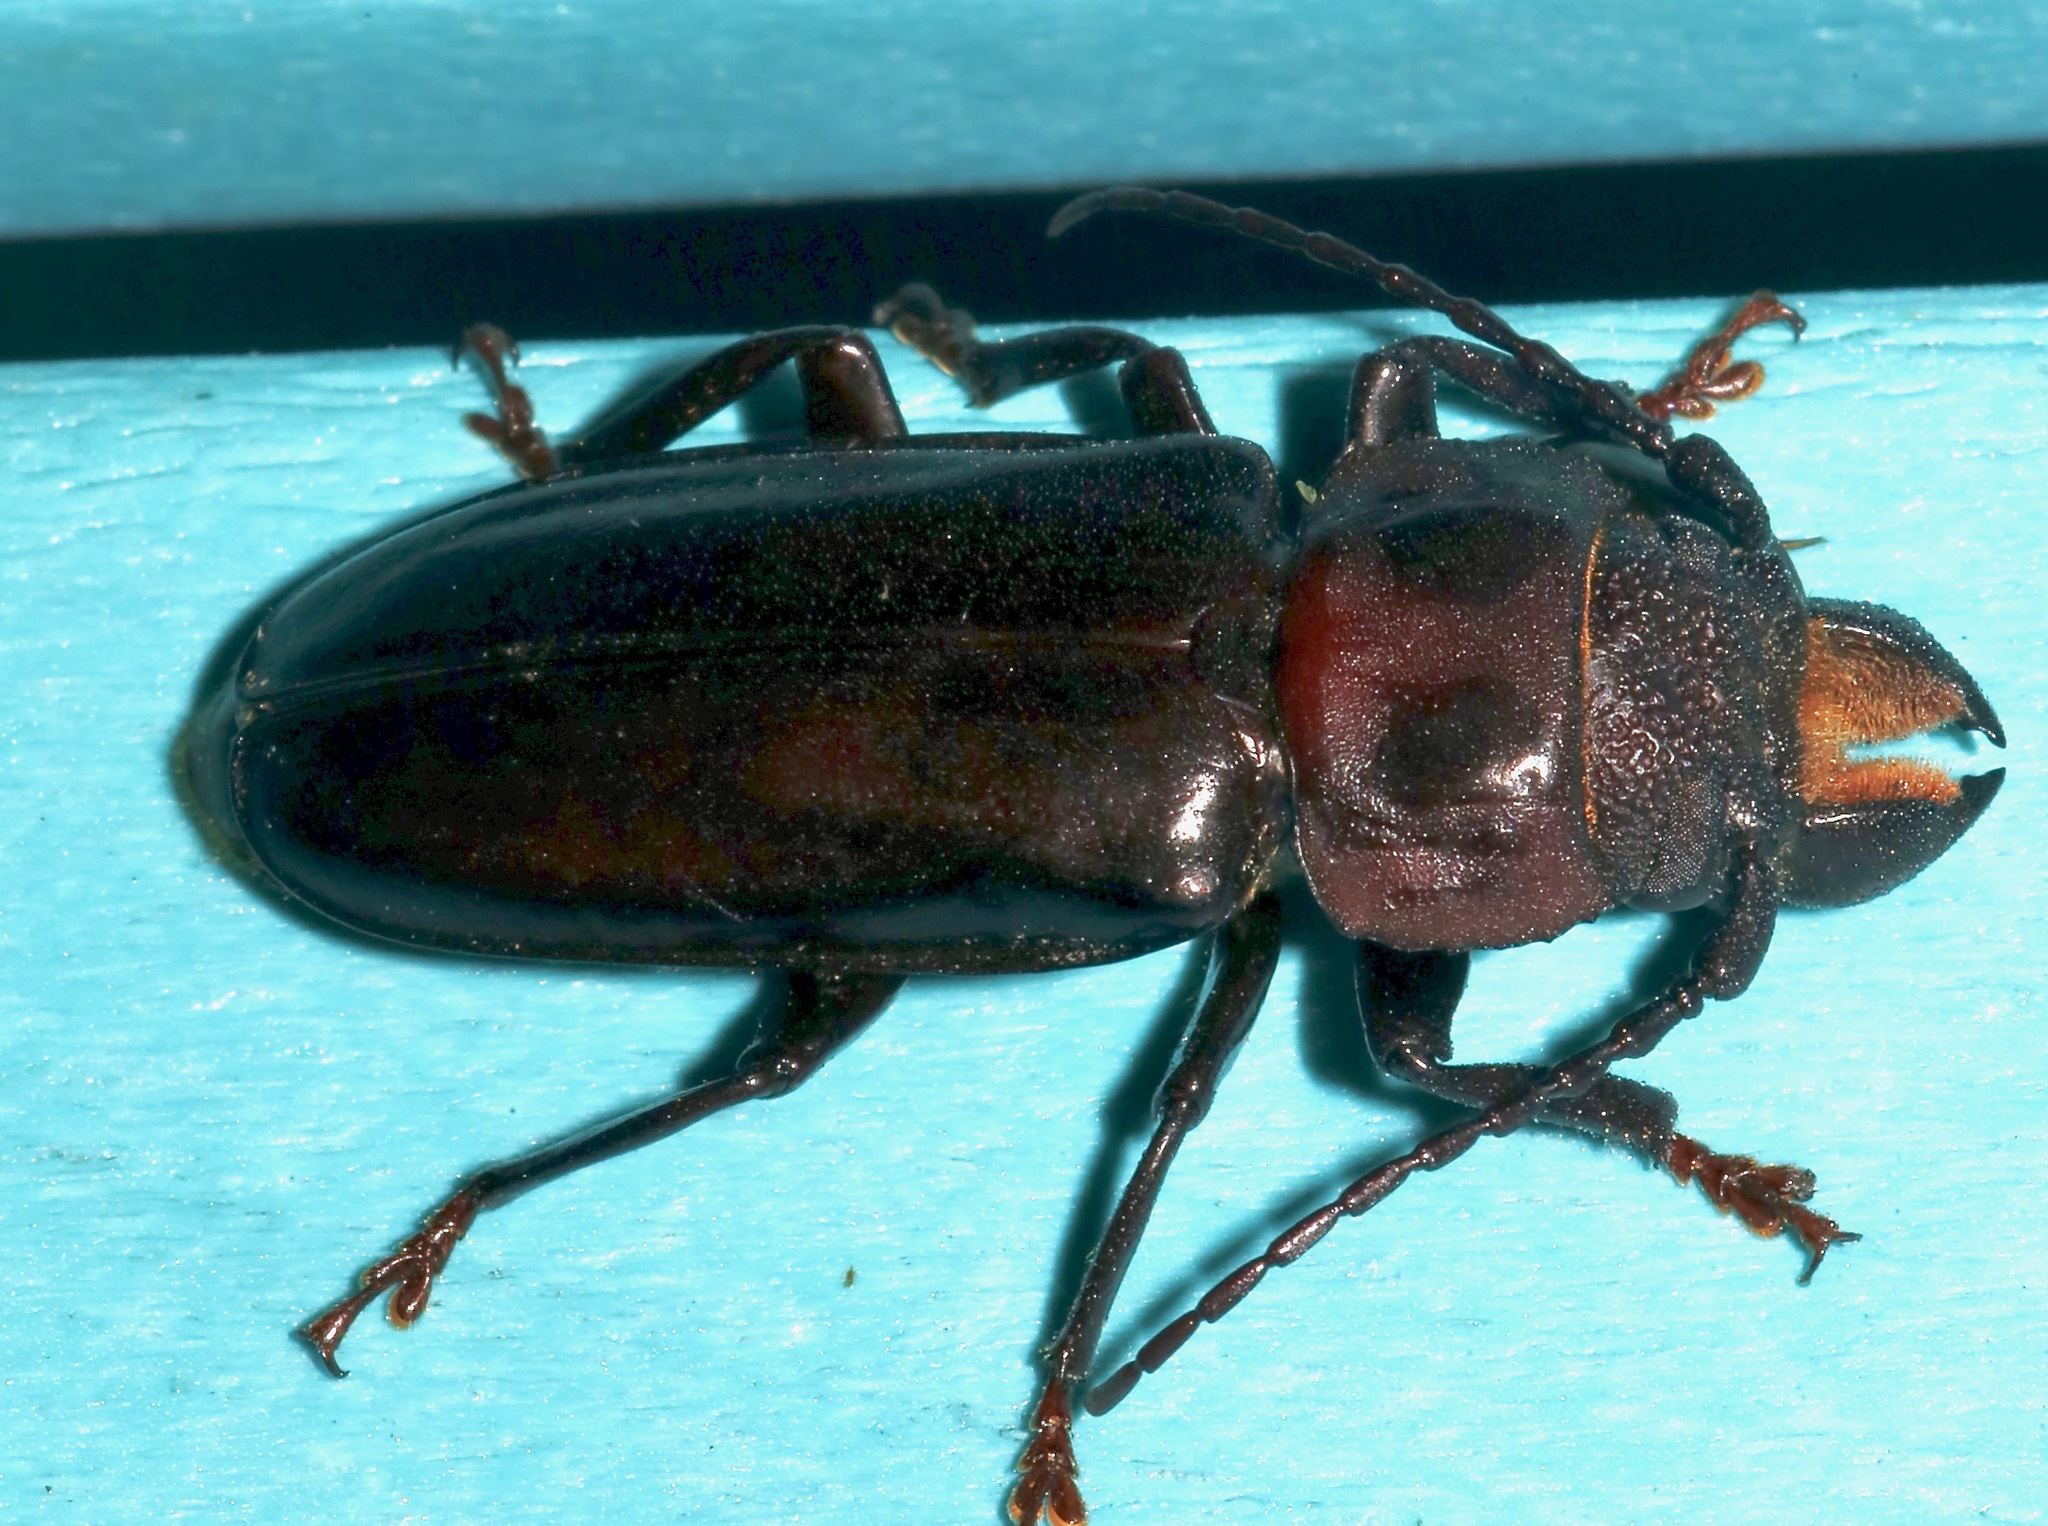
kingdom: Animalia
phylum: Arthropoda
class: Insecta
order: Coleoptera
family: Cerambycidae
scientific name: Cerambycidae
